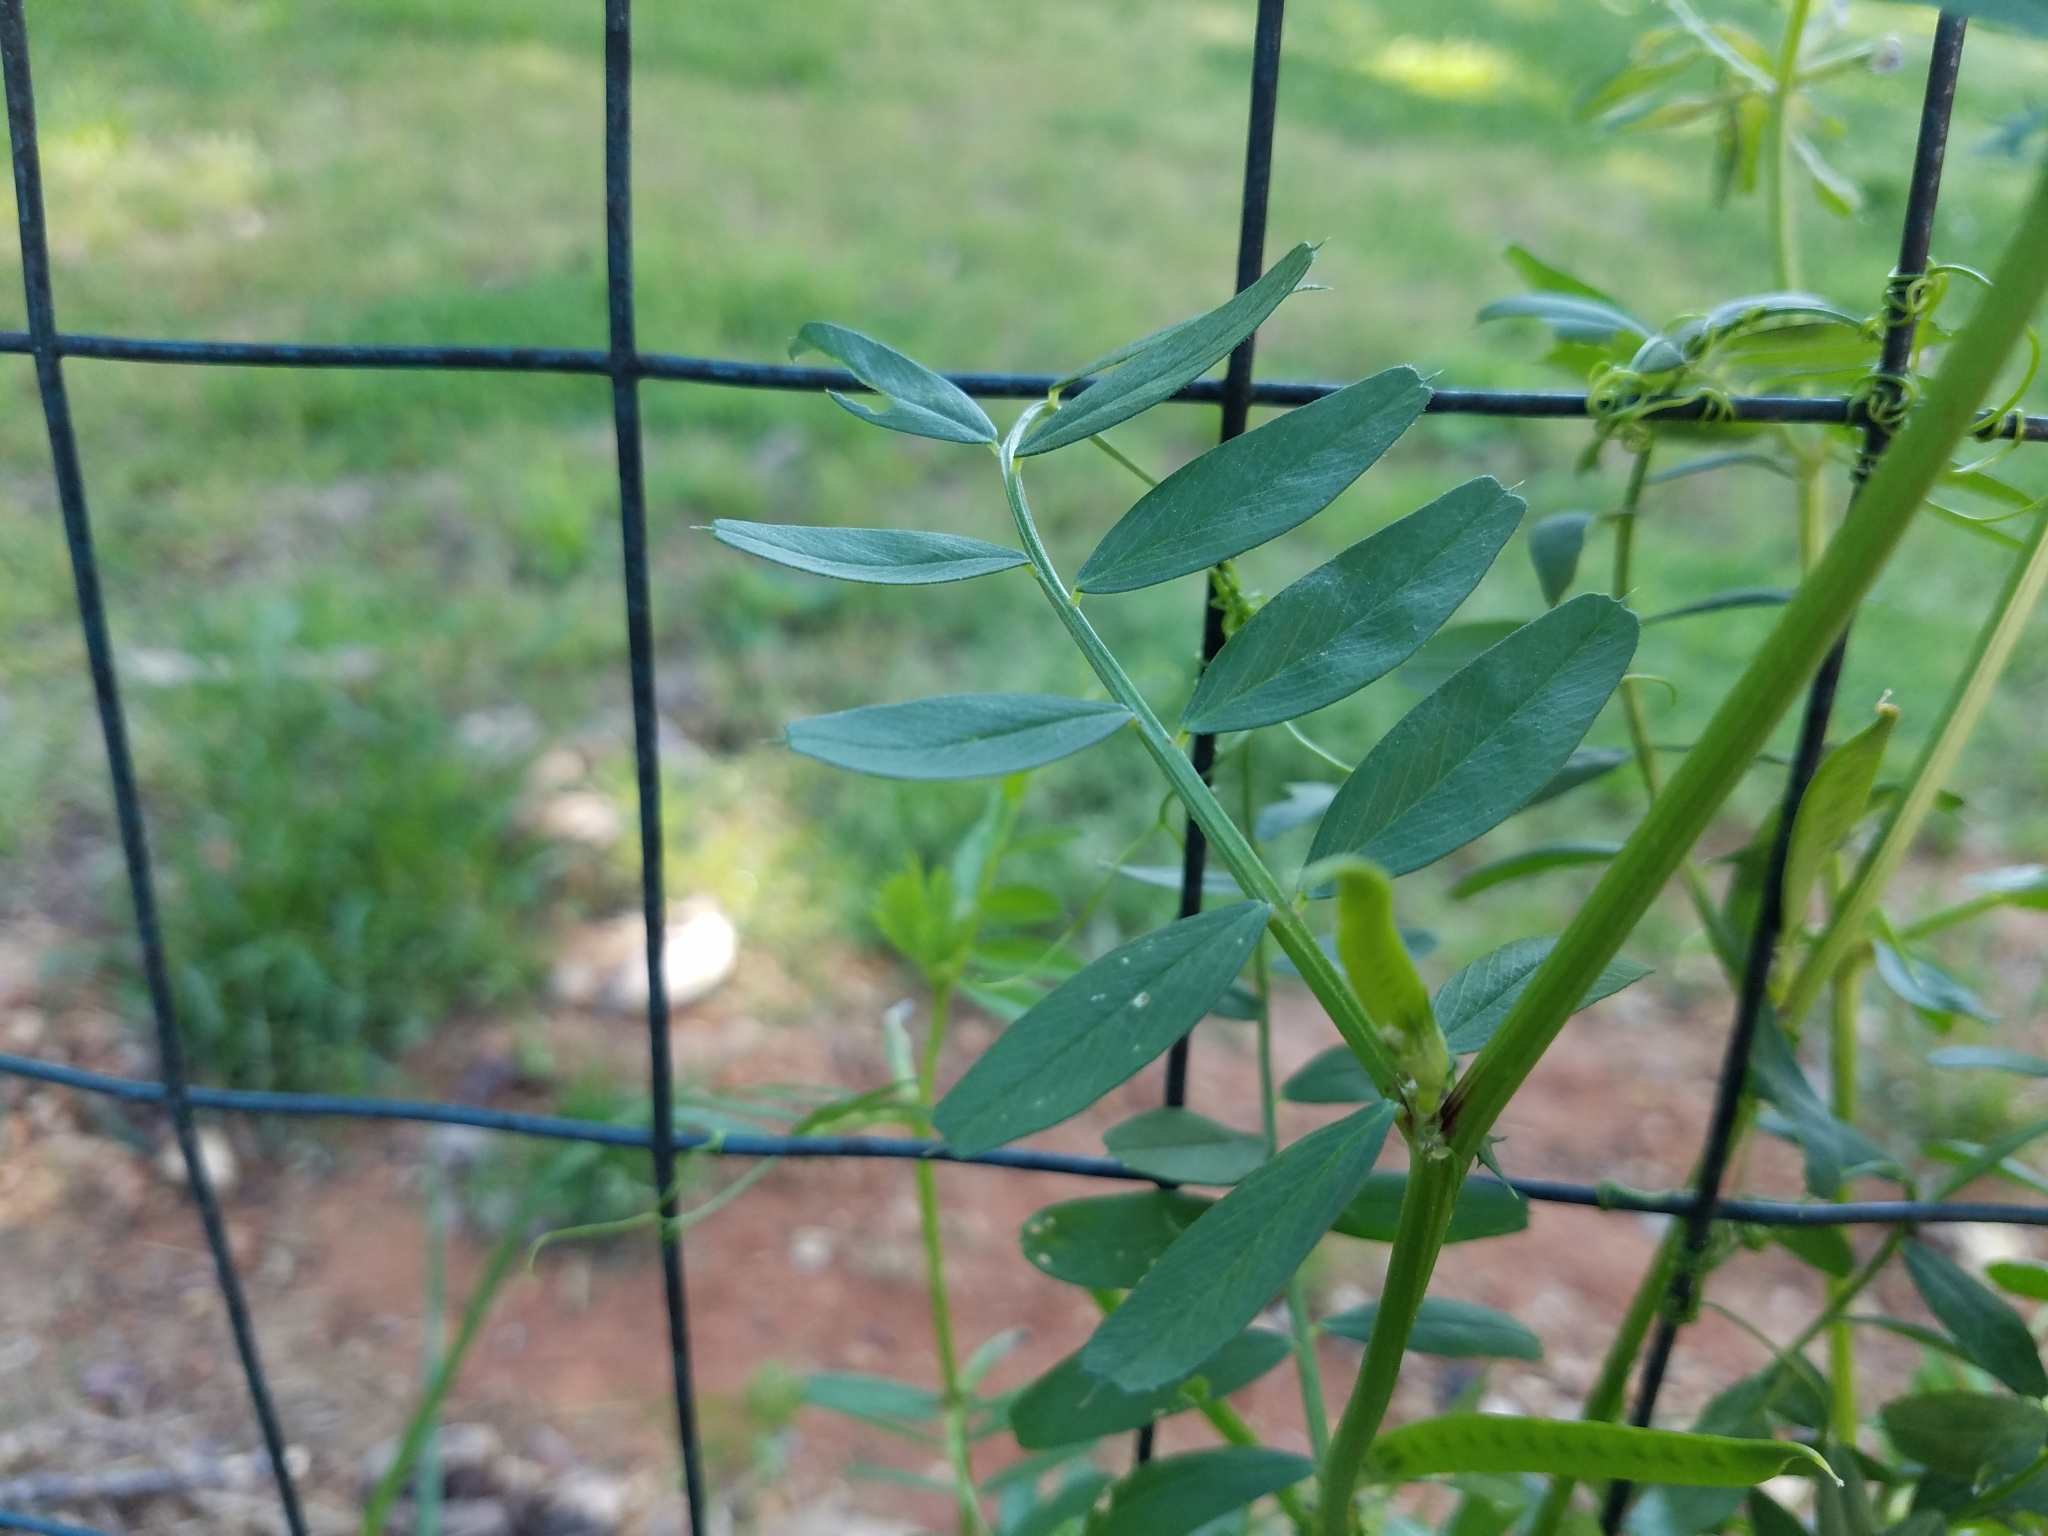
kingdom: Plantae
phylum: Tracheophyta
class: Magnoliopsida
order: Fabales
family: Fabaceae
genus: Vicia
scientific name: Vicia sativa
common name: Garden vetch
